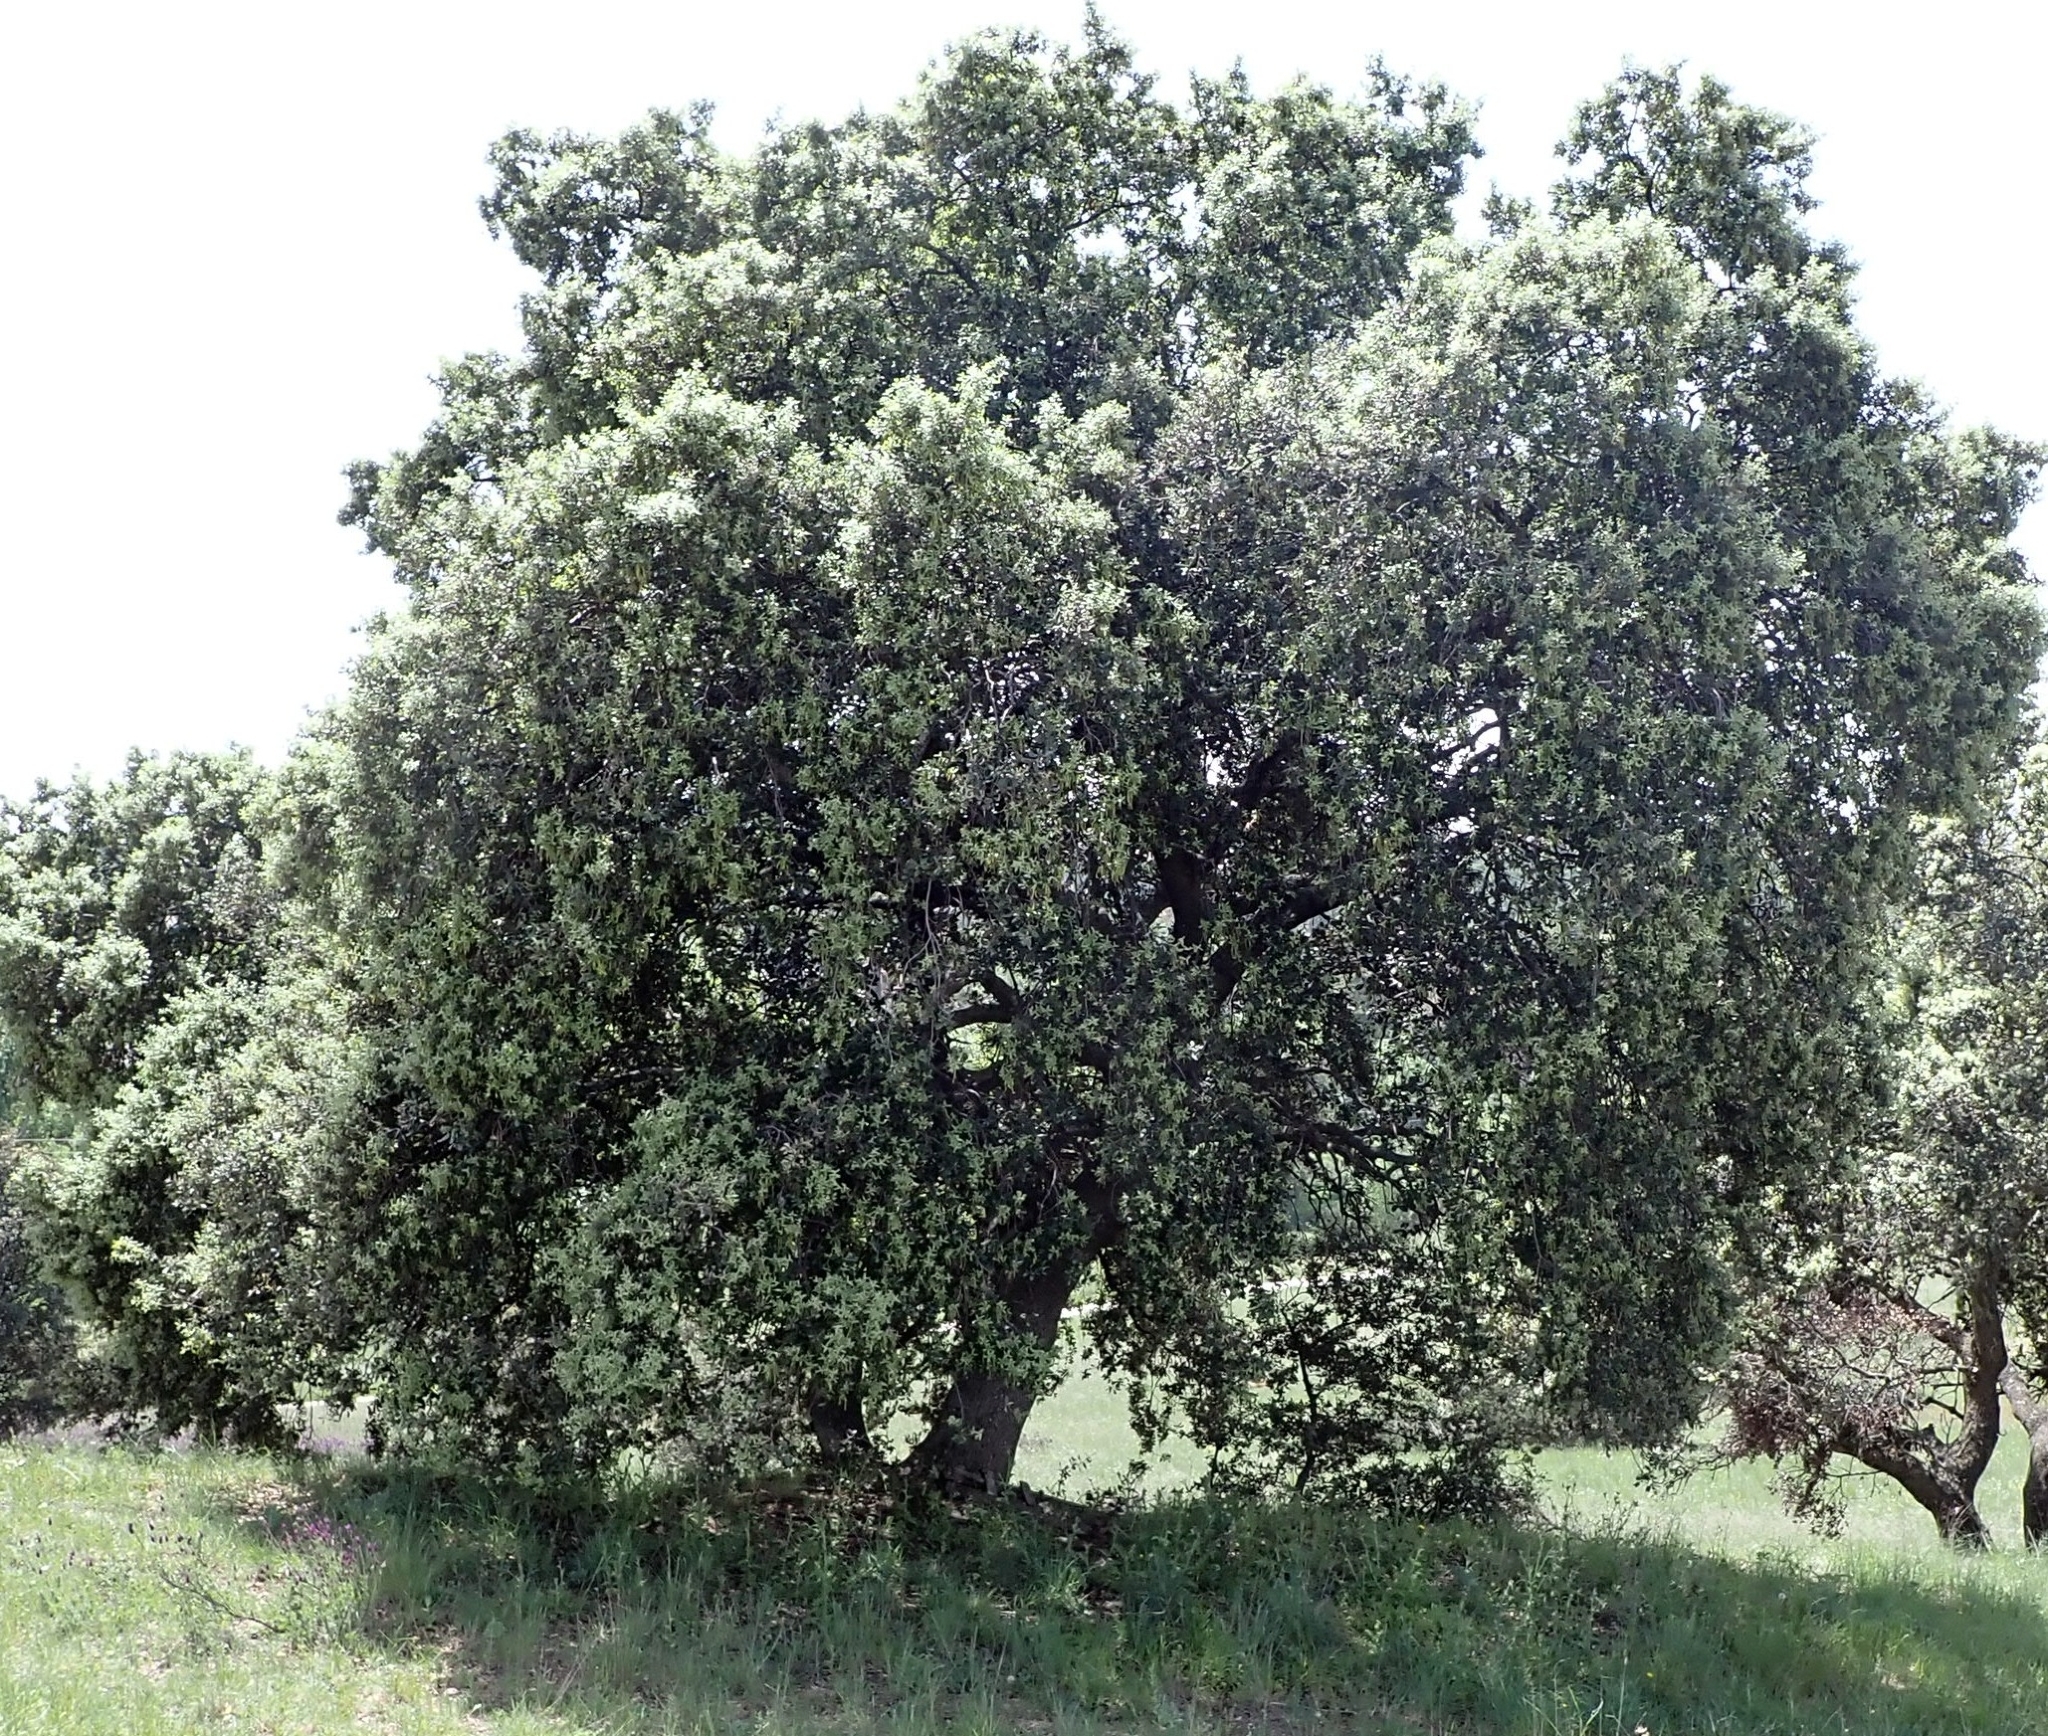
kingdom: Plantae
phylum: Tracheophyta
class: Magnoliopsida
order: Fagales
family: Fagaceae
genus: Quercus
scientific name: Quercus rotundifolia
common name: Holm oak
